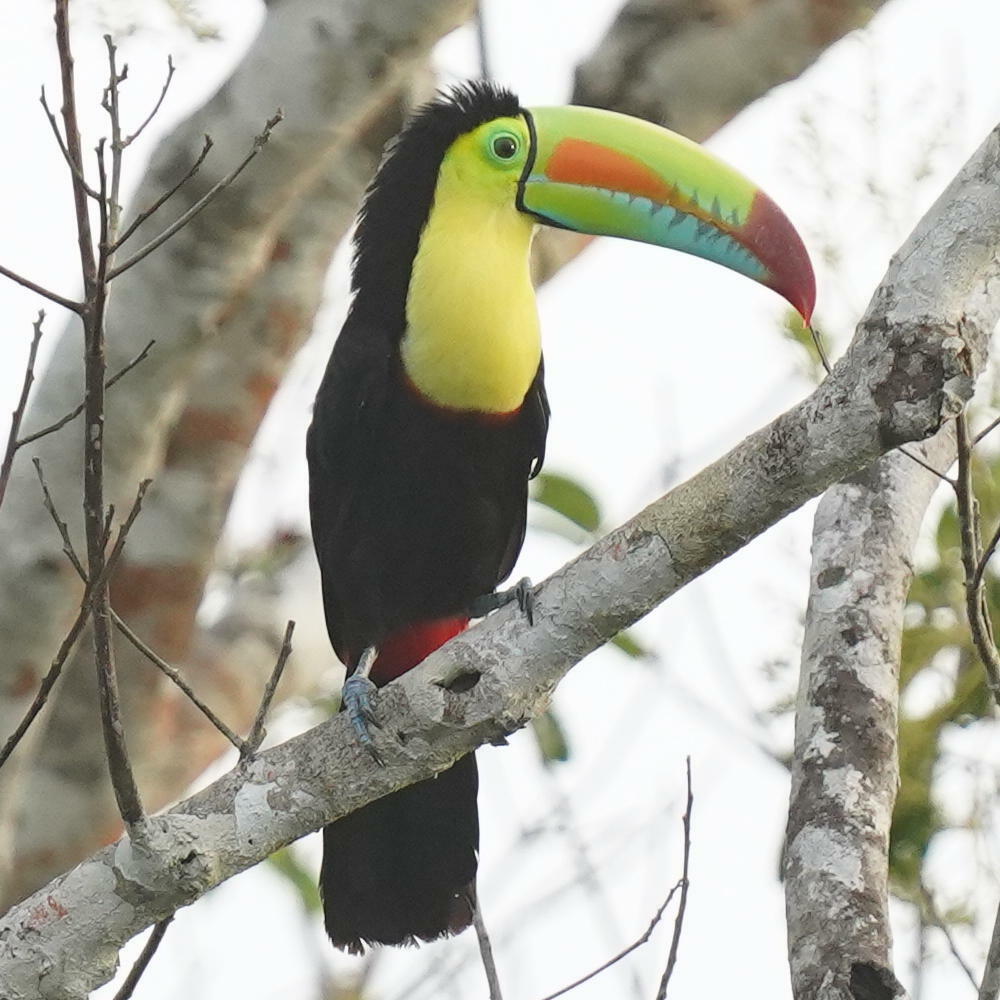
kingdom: Animalia
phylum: Chordata
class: Aves
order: Piciformes
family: Ramphastidae
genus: Ramphastos
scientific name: Ramphastos sulfuratus
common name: Keel-billed toucan
